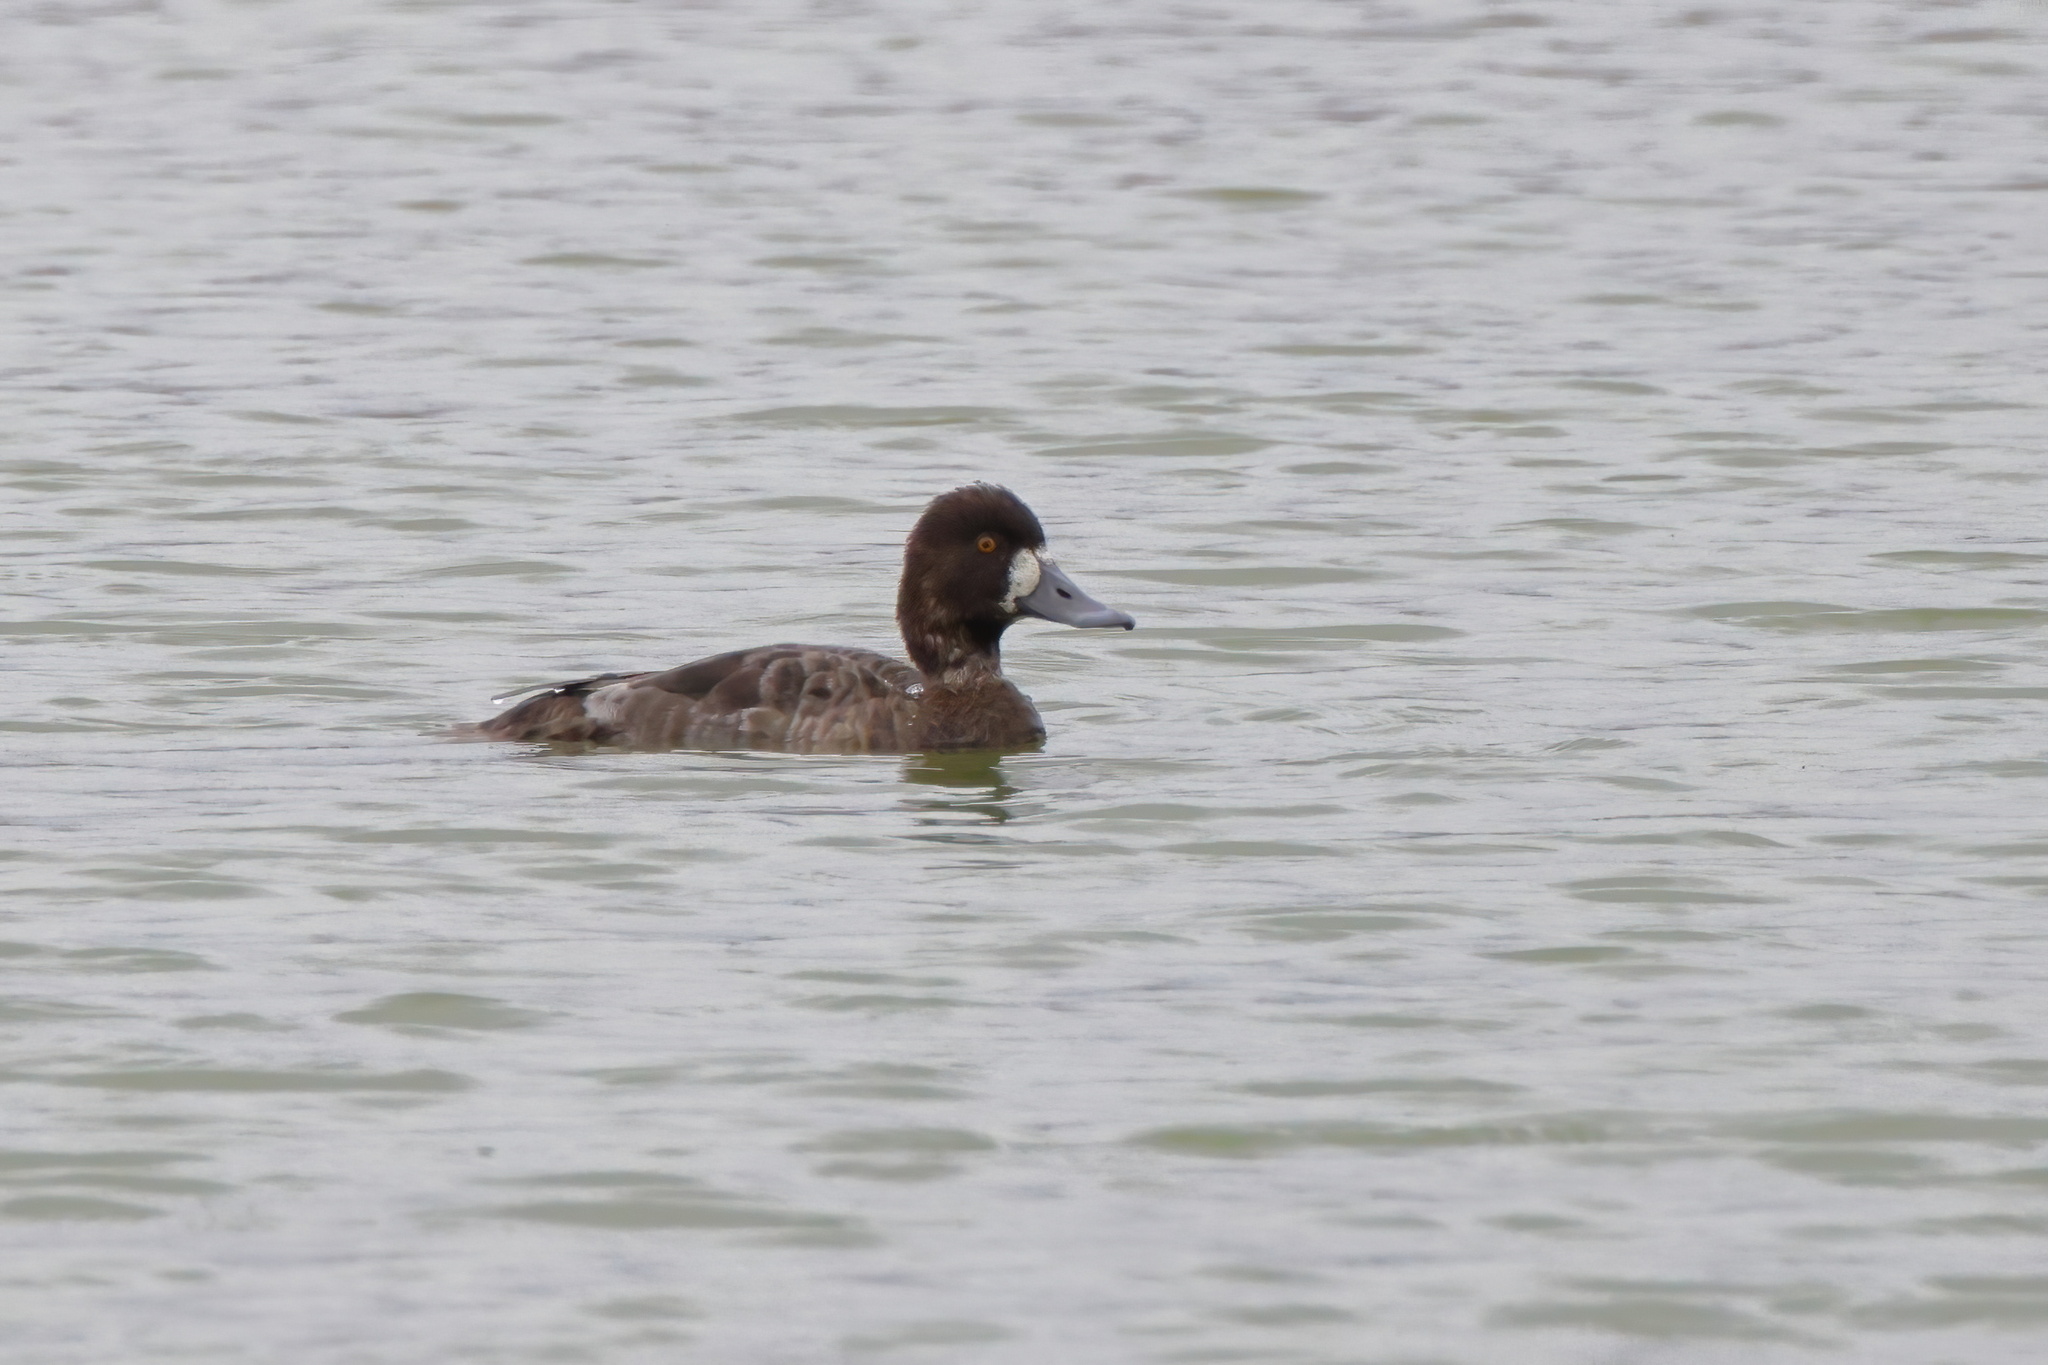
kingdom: Animalia
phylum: Chordata
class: Aves
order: Anseriformes
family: Anatidae
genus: Aythya
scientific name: Aythya affinis
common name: Lesser scaup
